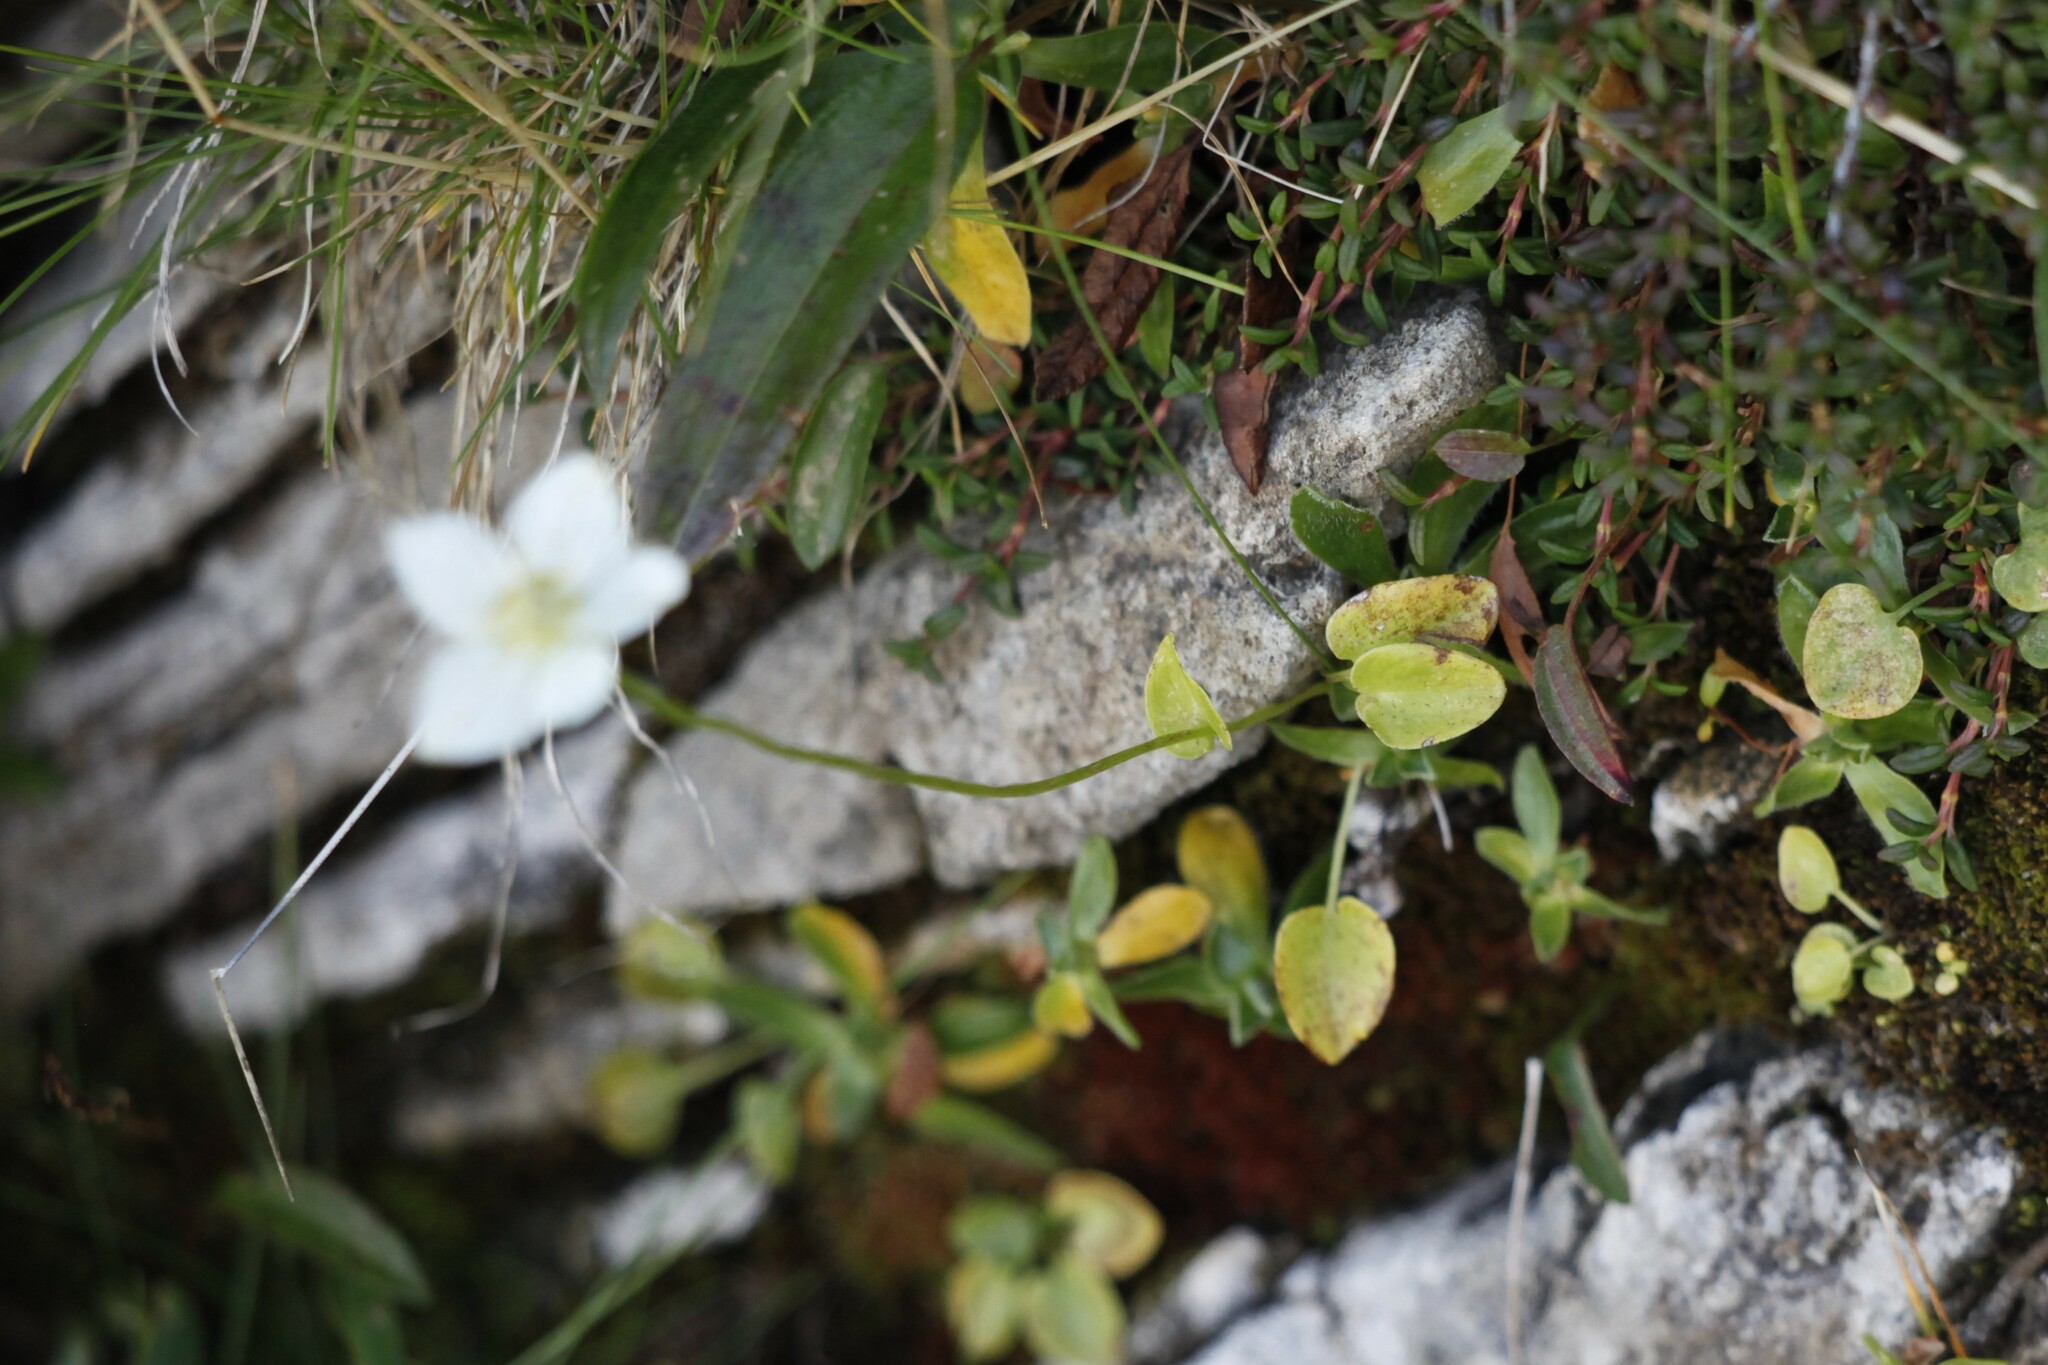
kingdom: Plantae
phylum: Tracheophyta
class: Magnoliopsida
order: Celastrales
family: Parnassiaceae
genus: Parnassia
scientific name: Parnassia palustris
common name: Grass-of-parnassus
